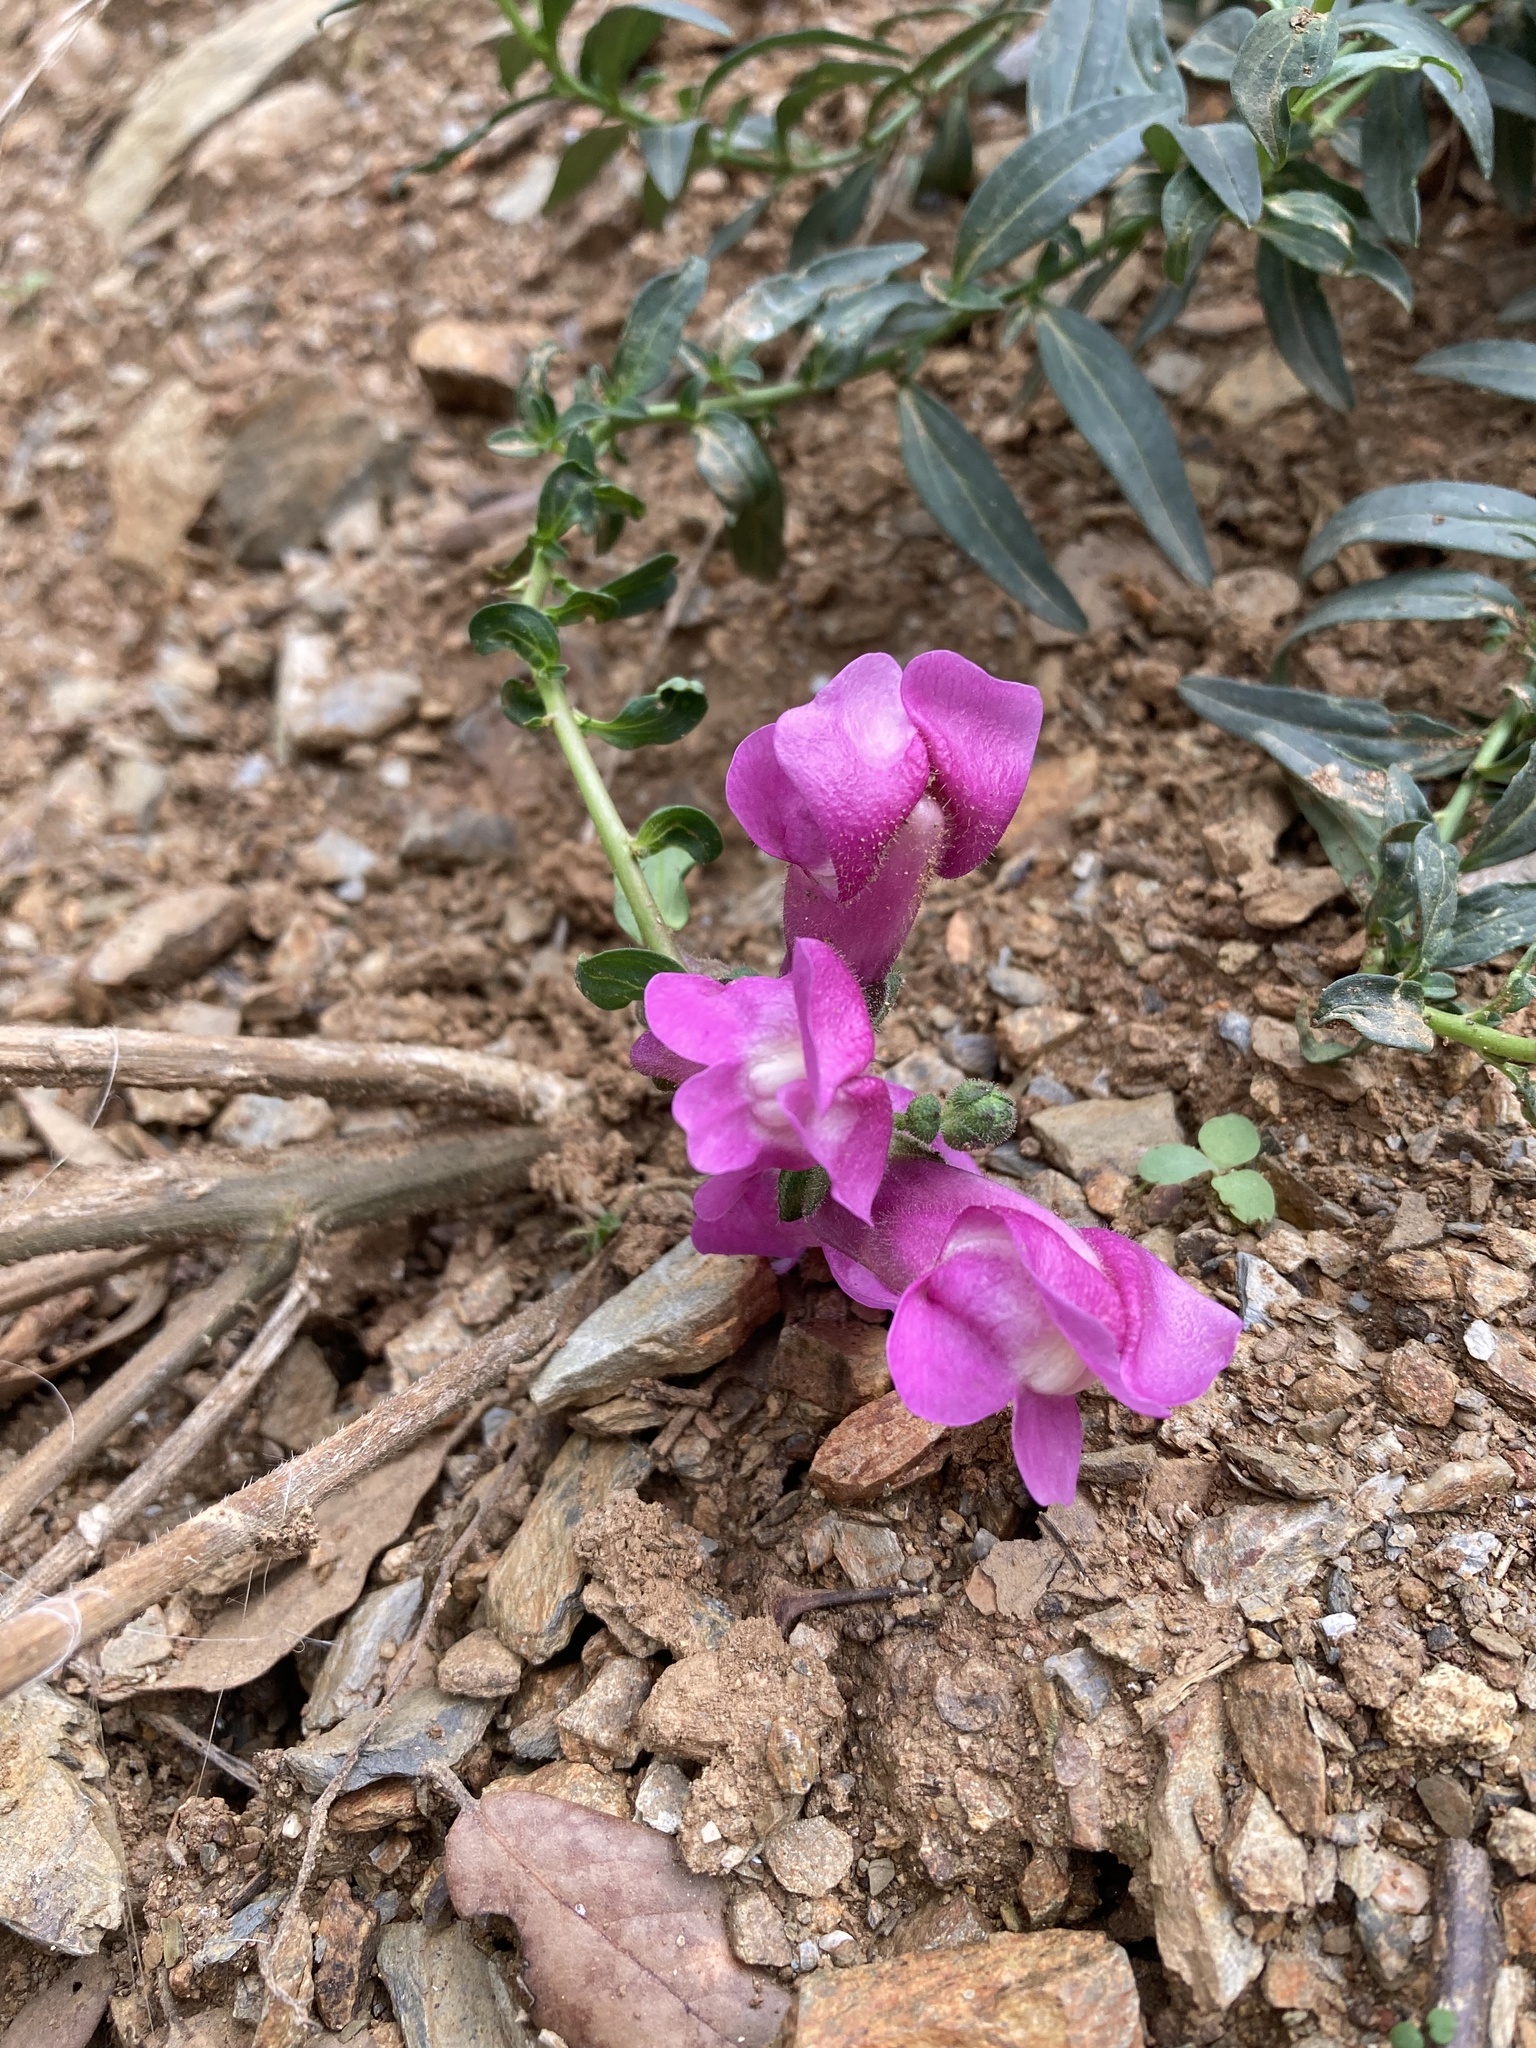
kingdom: Plantae
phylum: Tracheophyta
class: Magnoliopsida
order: Lamiales
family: Plantaginaceae
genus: Antirrhinum
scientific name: Antirrhinum majus
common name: Snapdragon
